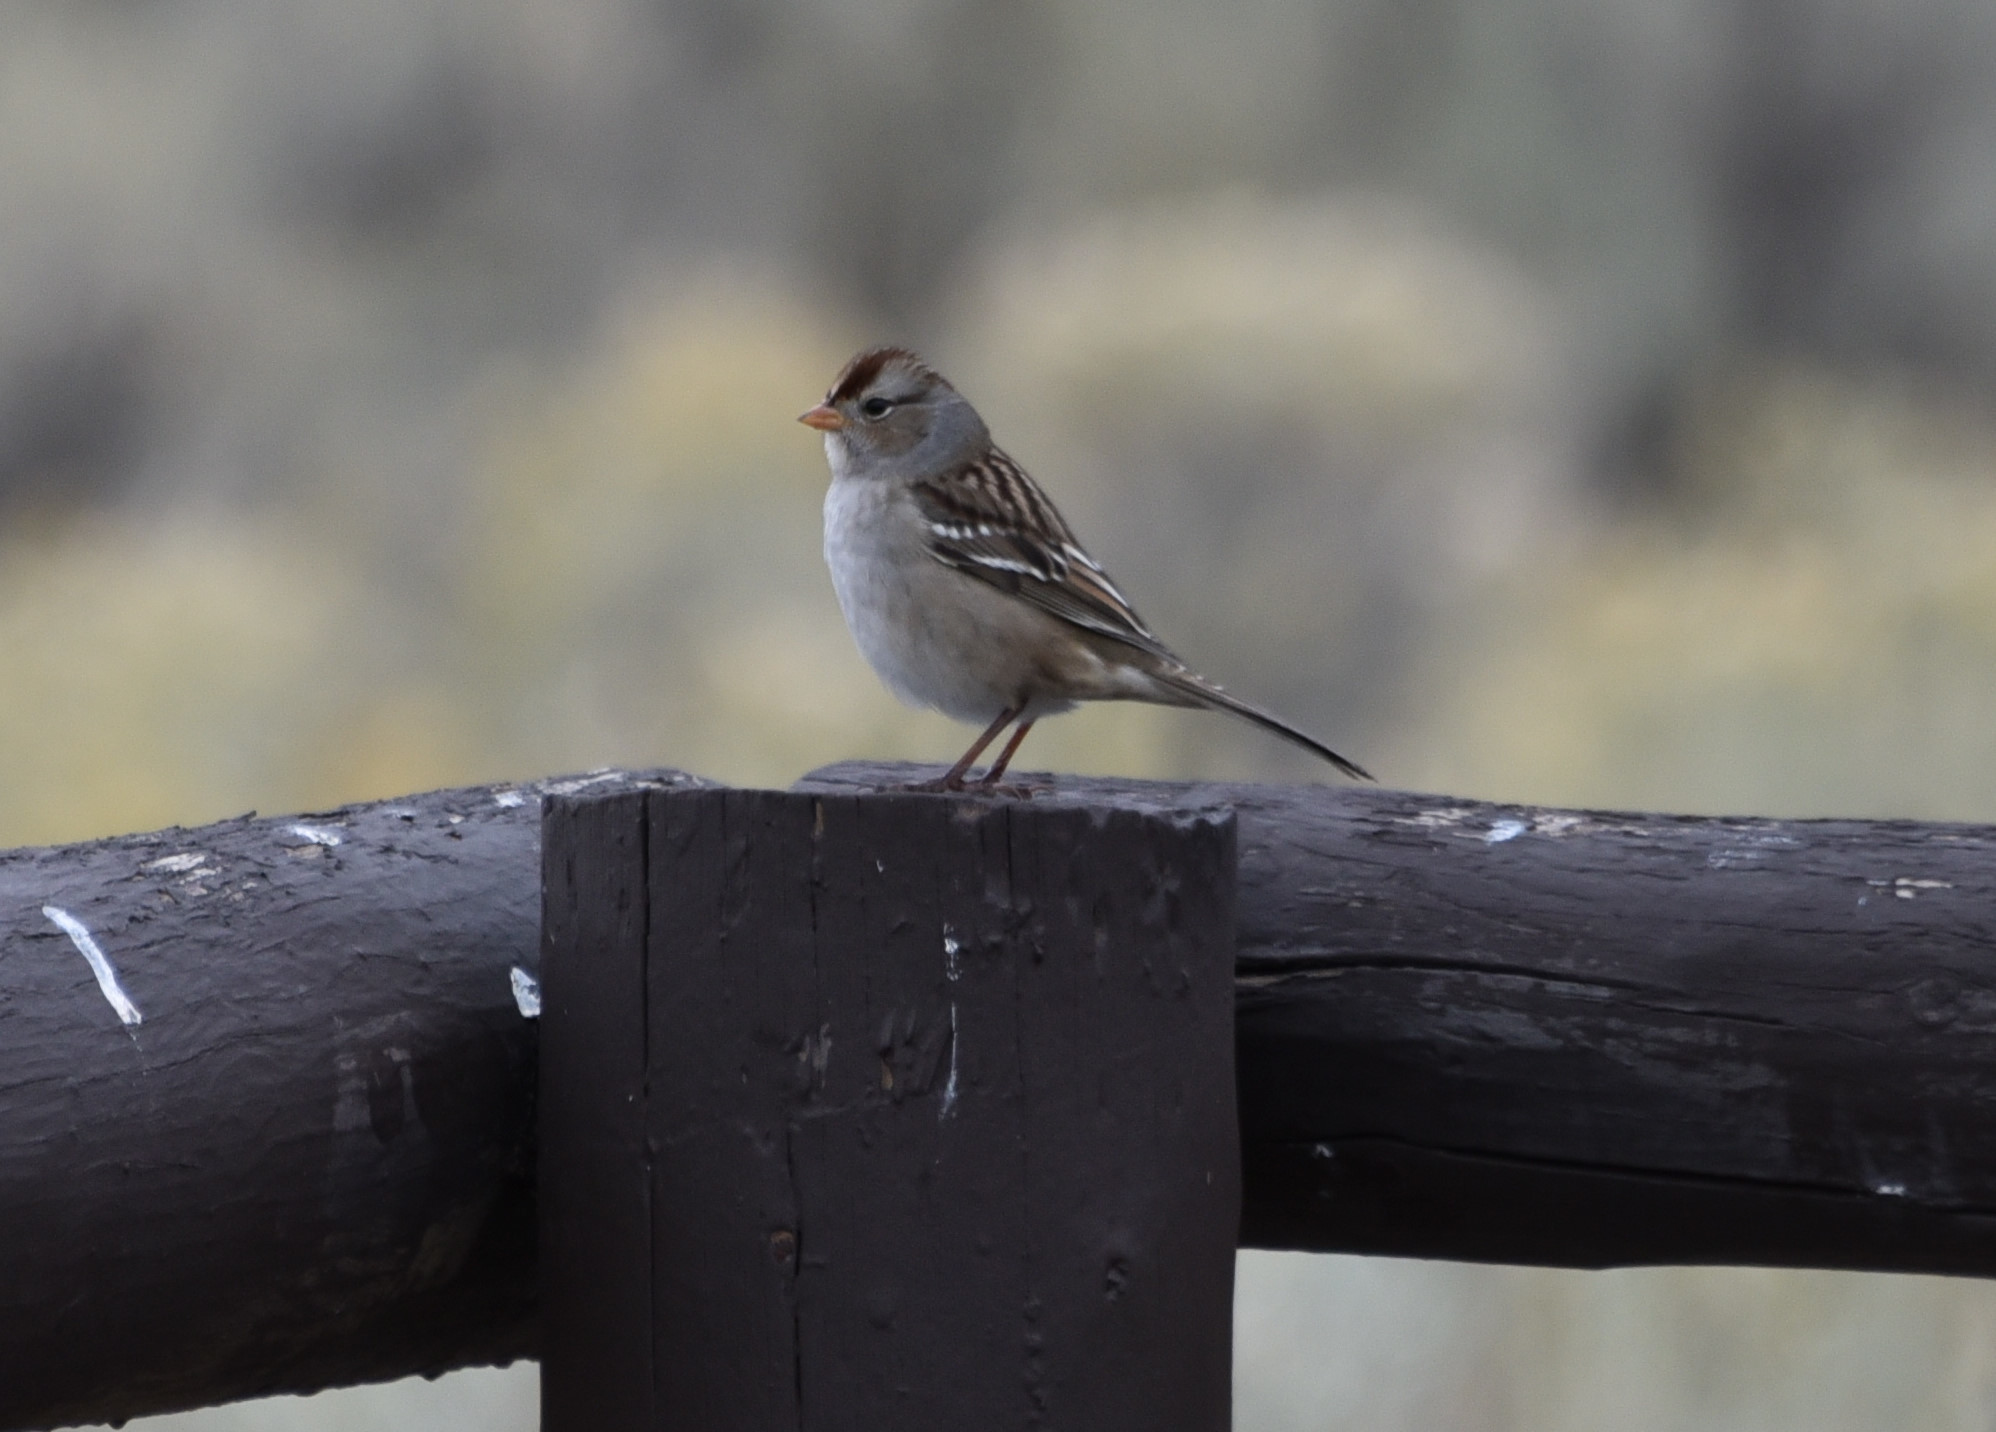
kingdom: Animalia
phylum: Chordata
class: Aves
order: Passeriformes
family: Passerellidae
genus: Zonotrichia
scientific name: Zonotrichia leucophrys
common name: White-crowned sparrow
